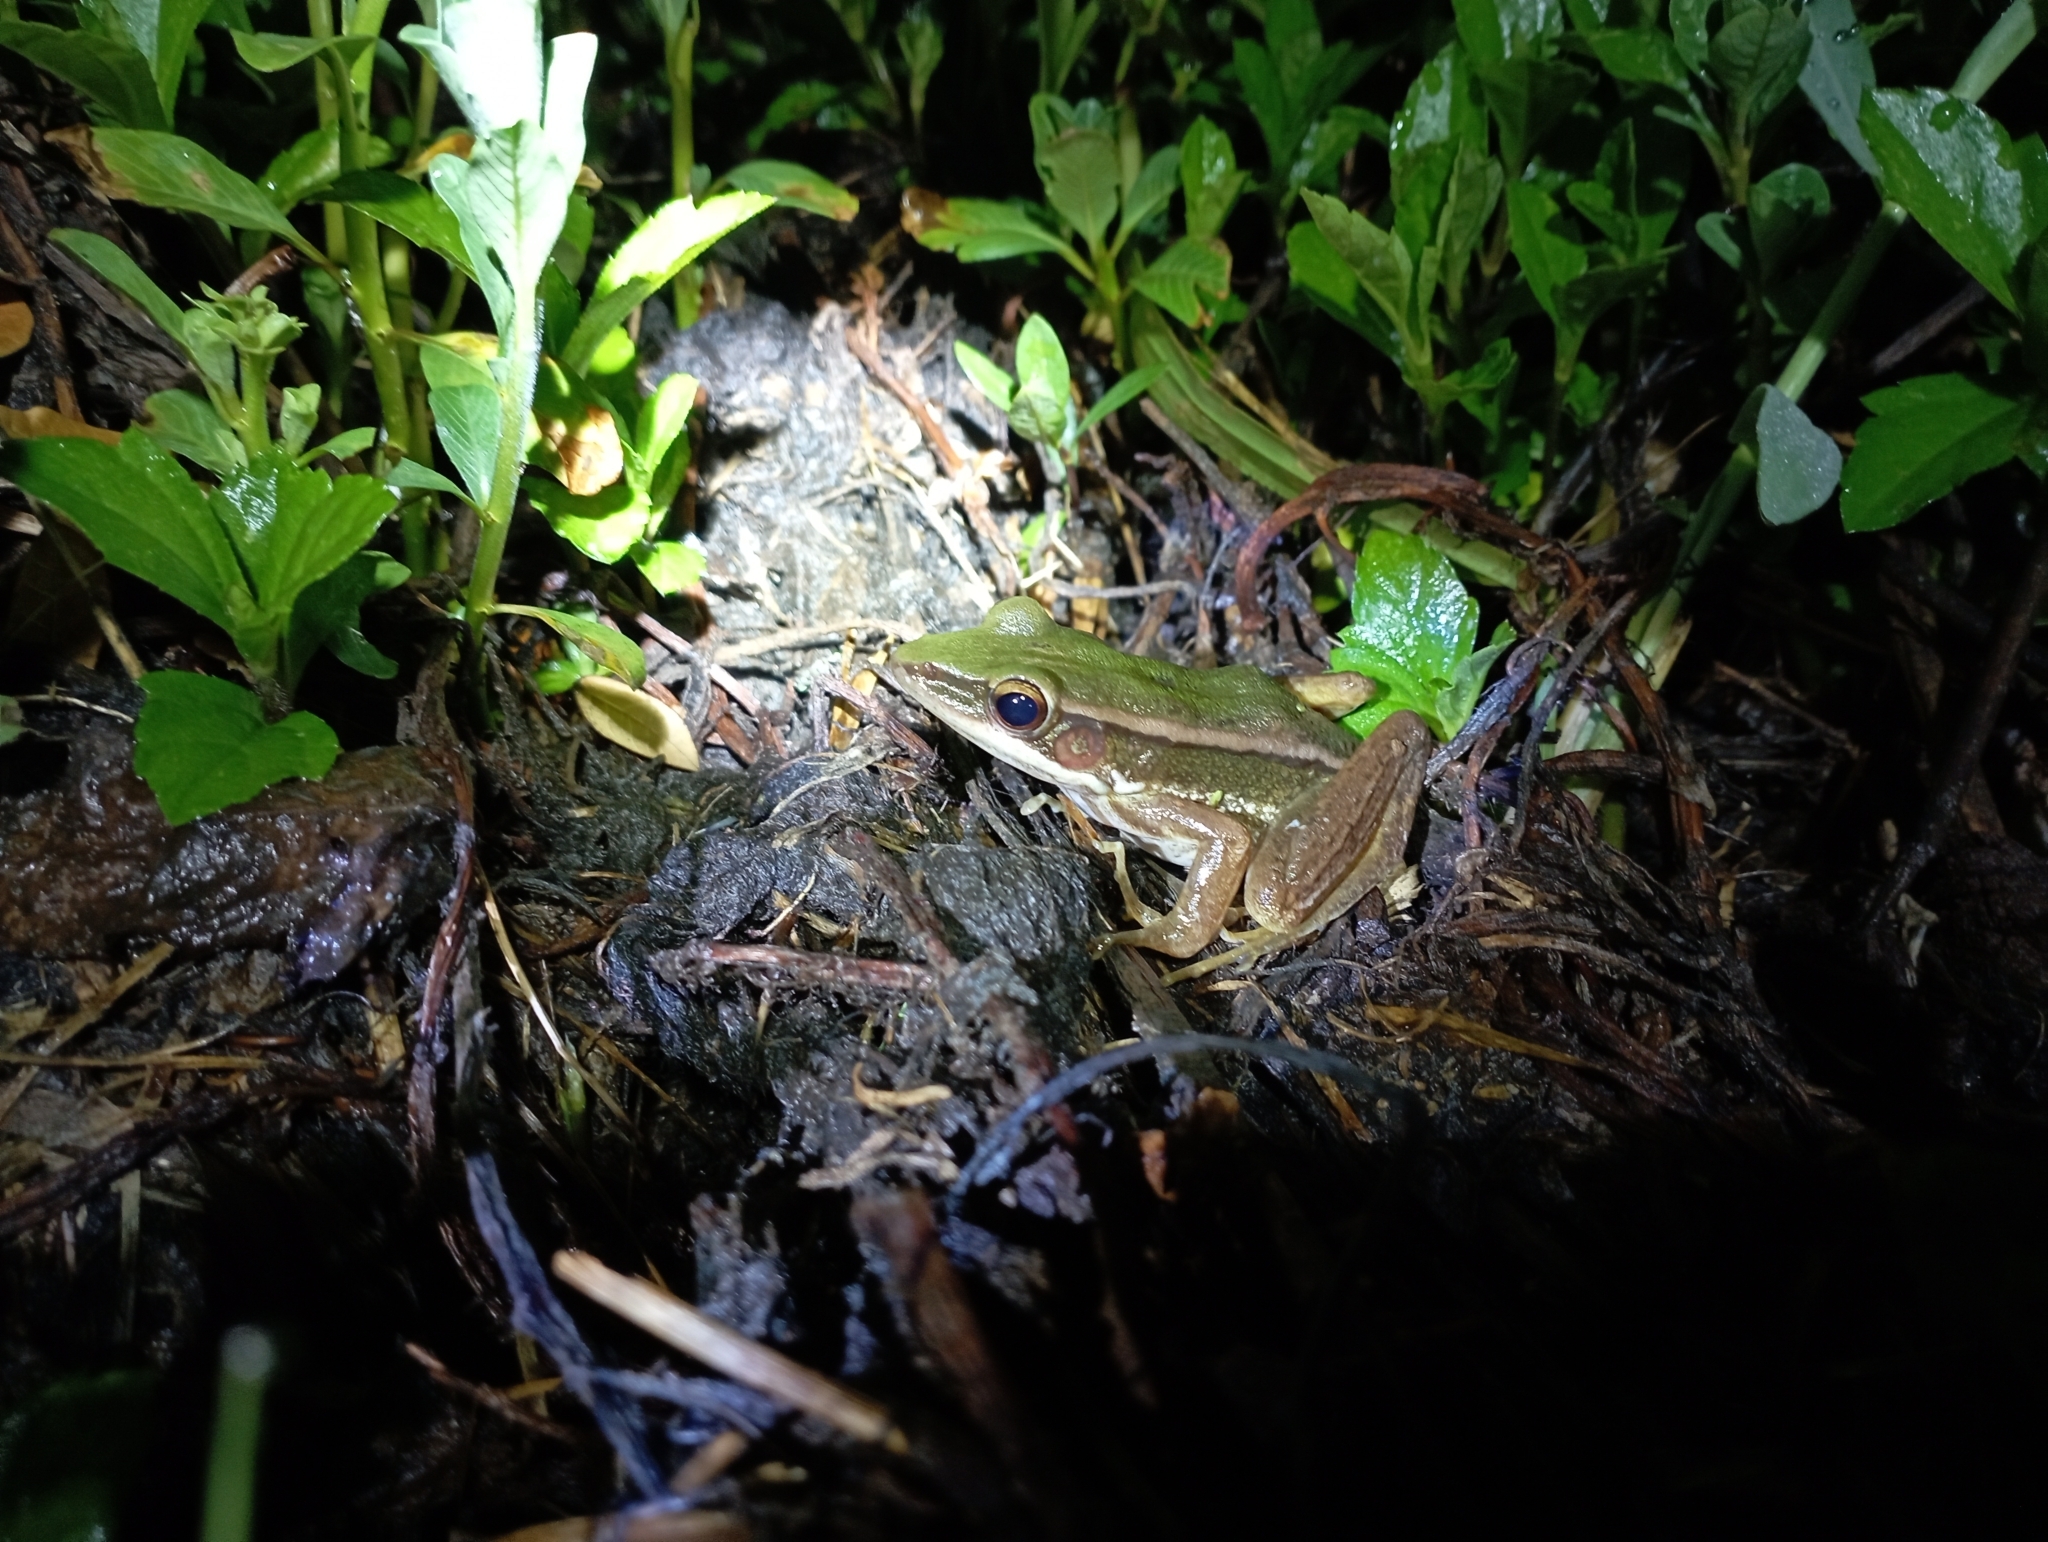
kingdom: Animalia
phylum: Chordata
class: Amphibia
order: Anura
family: Ranidae
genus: Hylarana
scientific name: Hylarana erythraea
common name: Common green frog/green paddy frog/leaf frog
